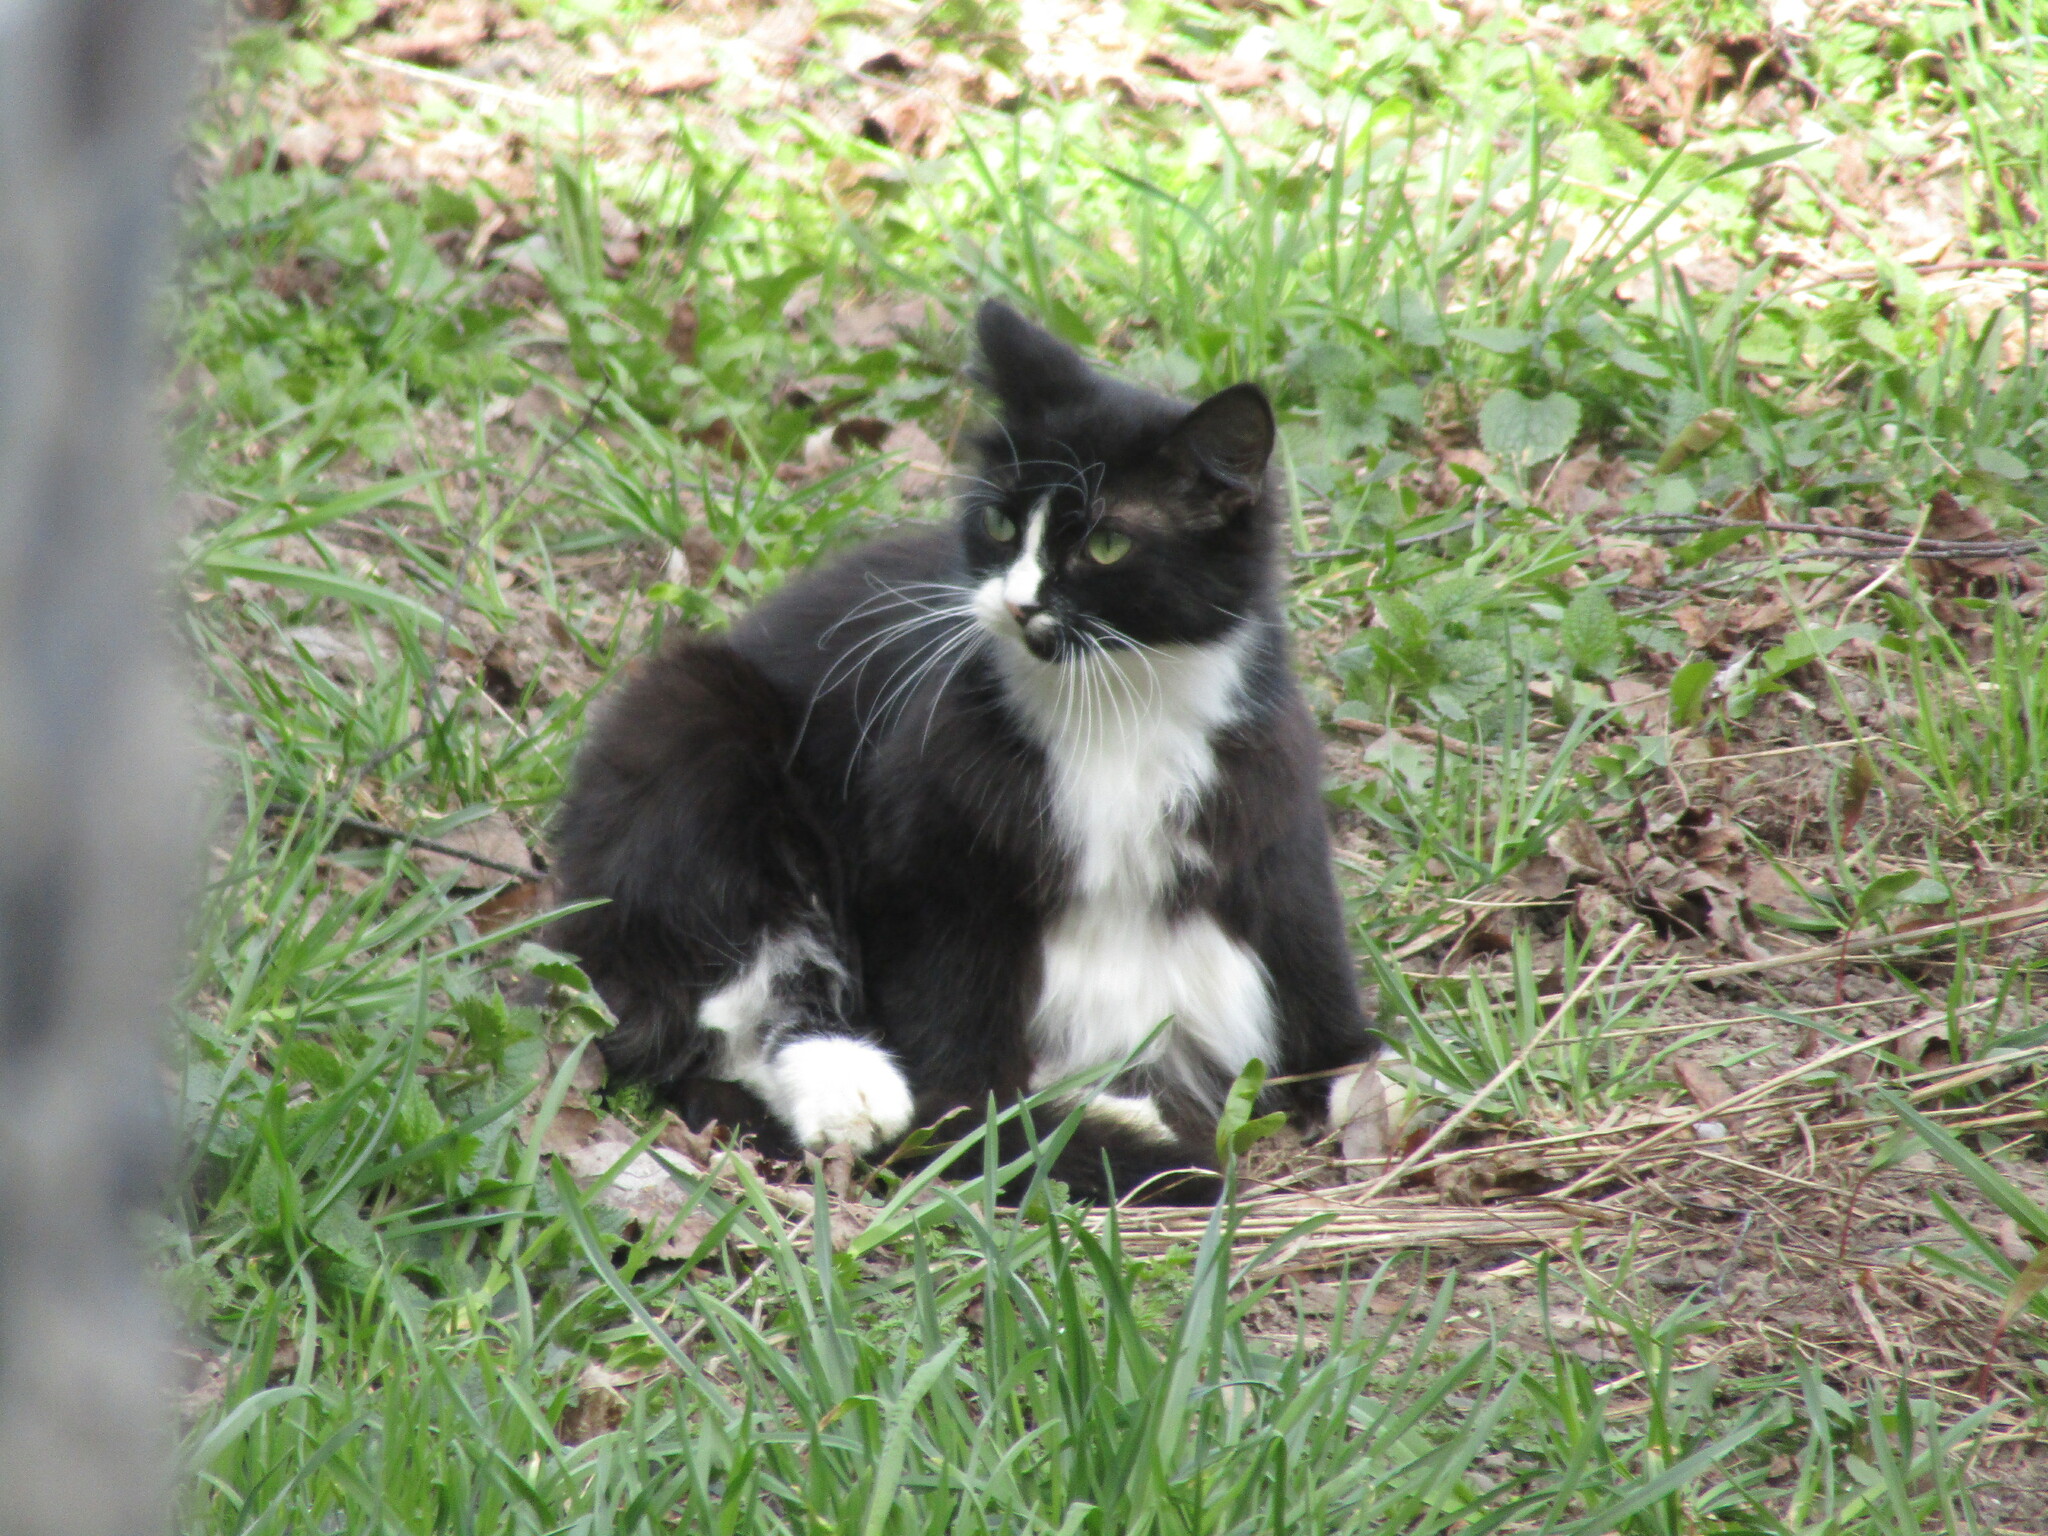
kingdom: Animalia
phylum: Chordata
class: Mammalia
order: Carnivora
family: Felidae
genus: Felis
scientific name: Felis catus
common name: Domestic cat
